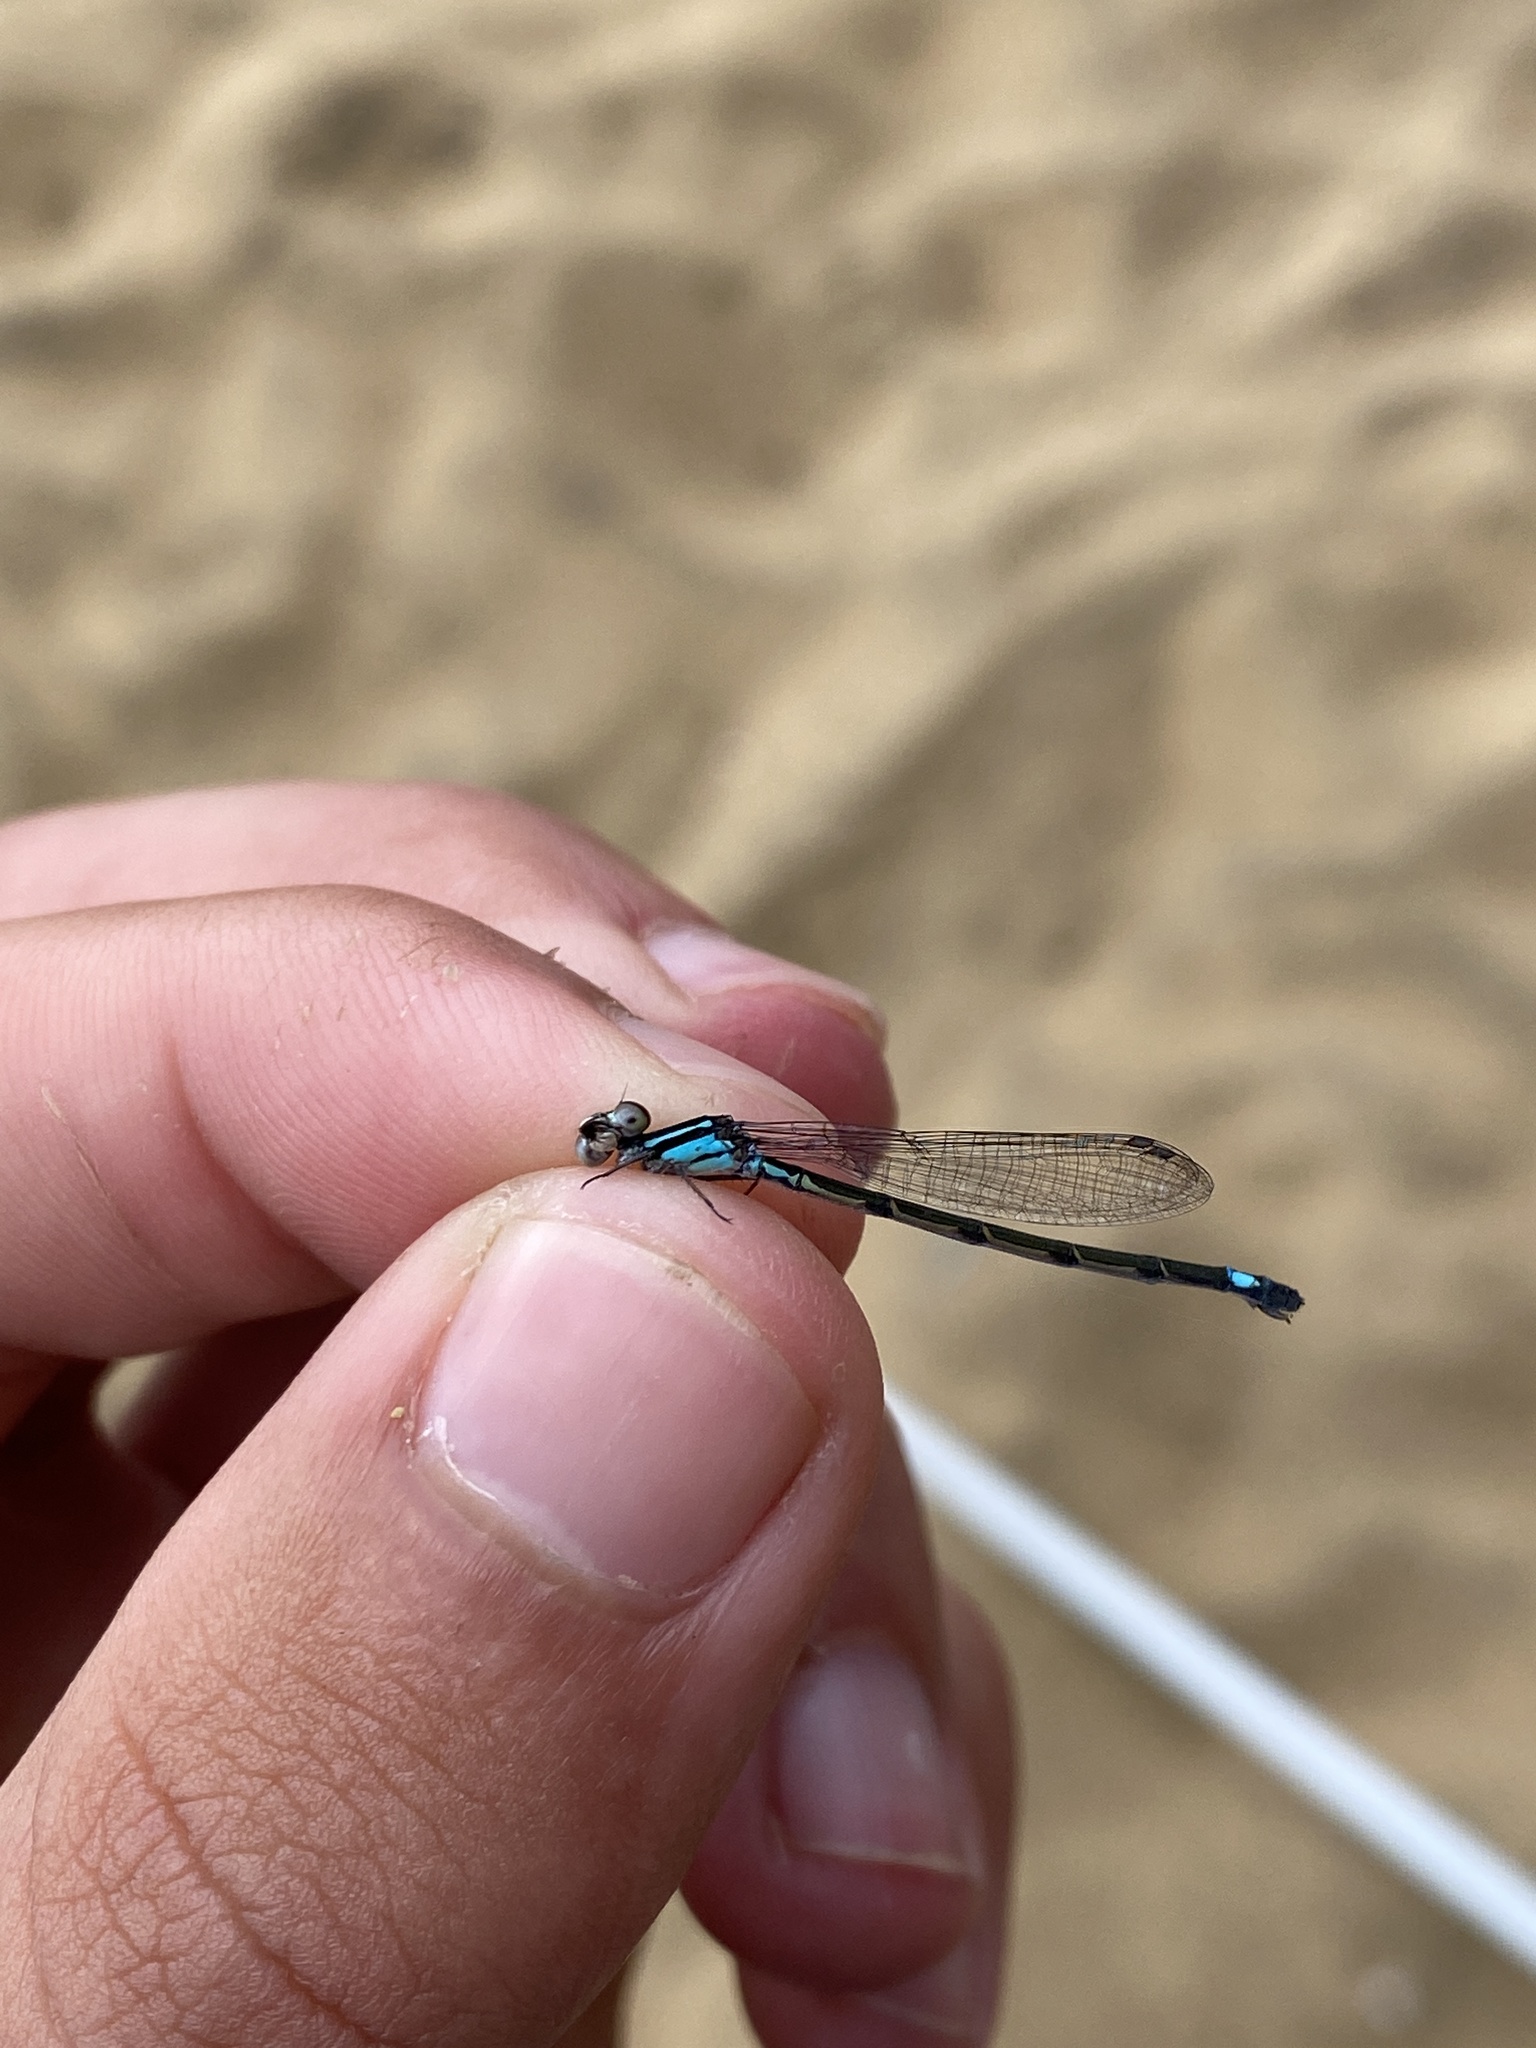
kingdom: Animalia
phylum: Arthropoda
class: Insecta
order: Odonata
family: Coenagrionidae
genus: Enallagma
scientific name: Enallagma geminatum
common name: Skimming bluet
